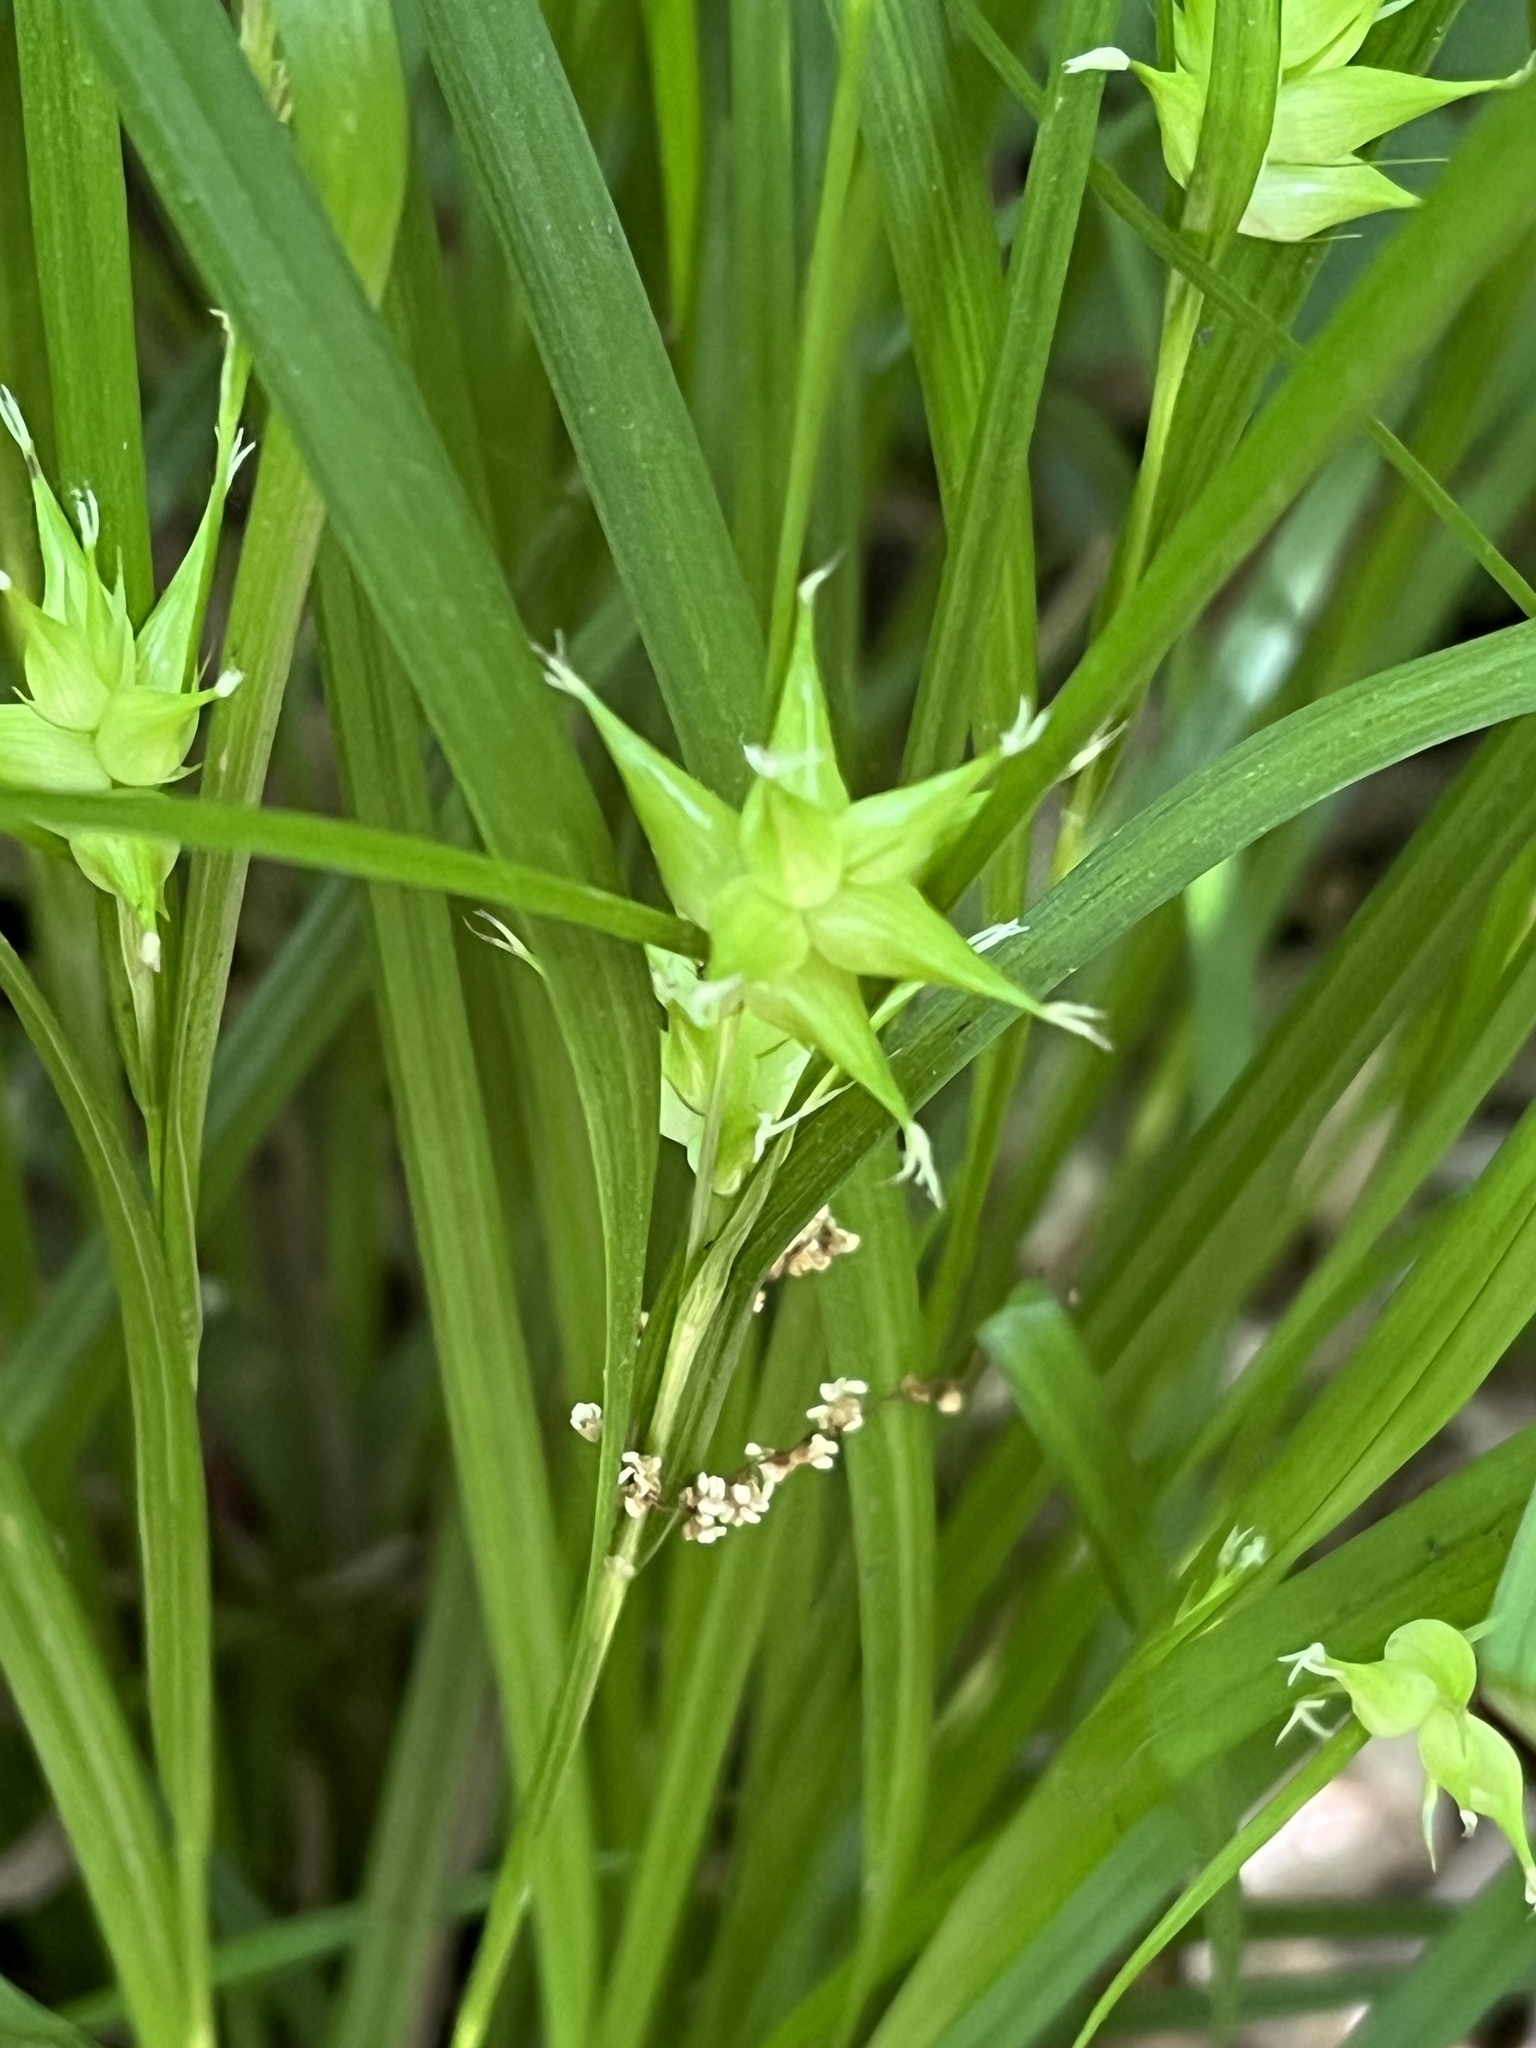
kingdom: Plantae
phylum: Tracheophyta
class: Liliopsida
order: Poales
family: Cyperaceae
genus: Carex
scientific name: Carex intumescens
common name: Greater bladder sedge
